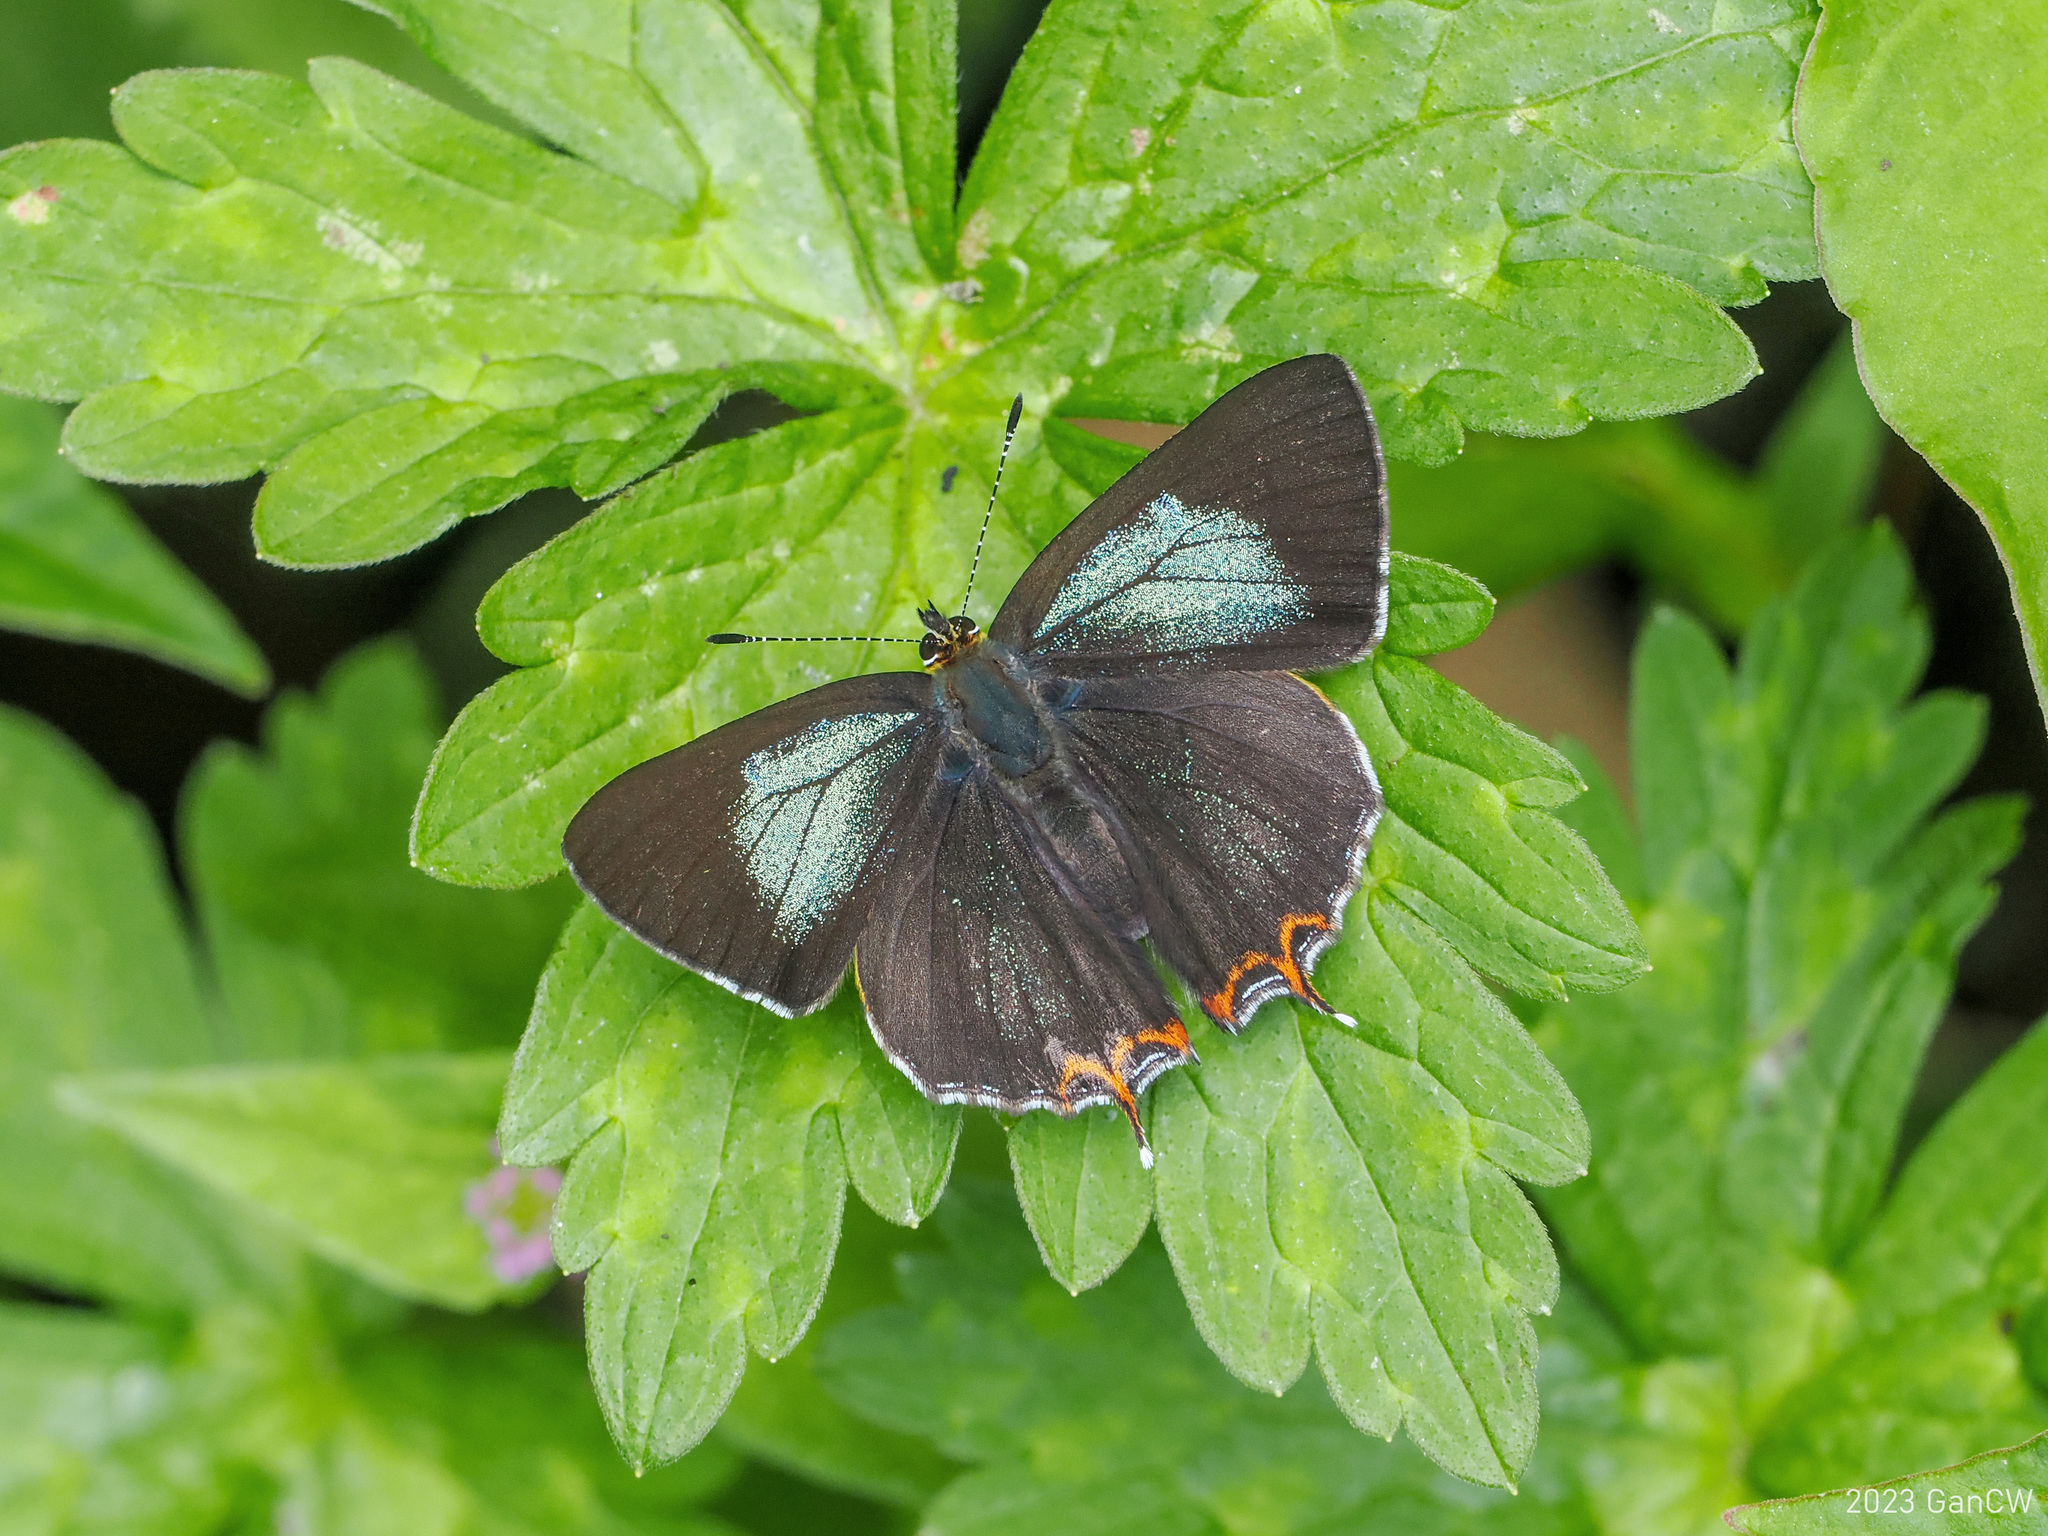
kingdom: Animalia
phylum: Arthropoda
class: Insecta
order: Lepidoptera
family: Lycaenidae
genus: Heliophorus
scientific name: Heliophorus tamu
